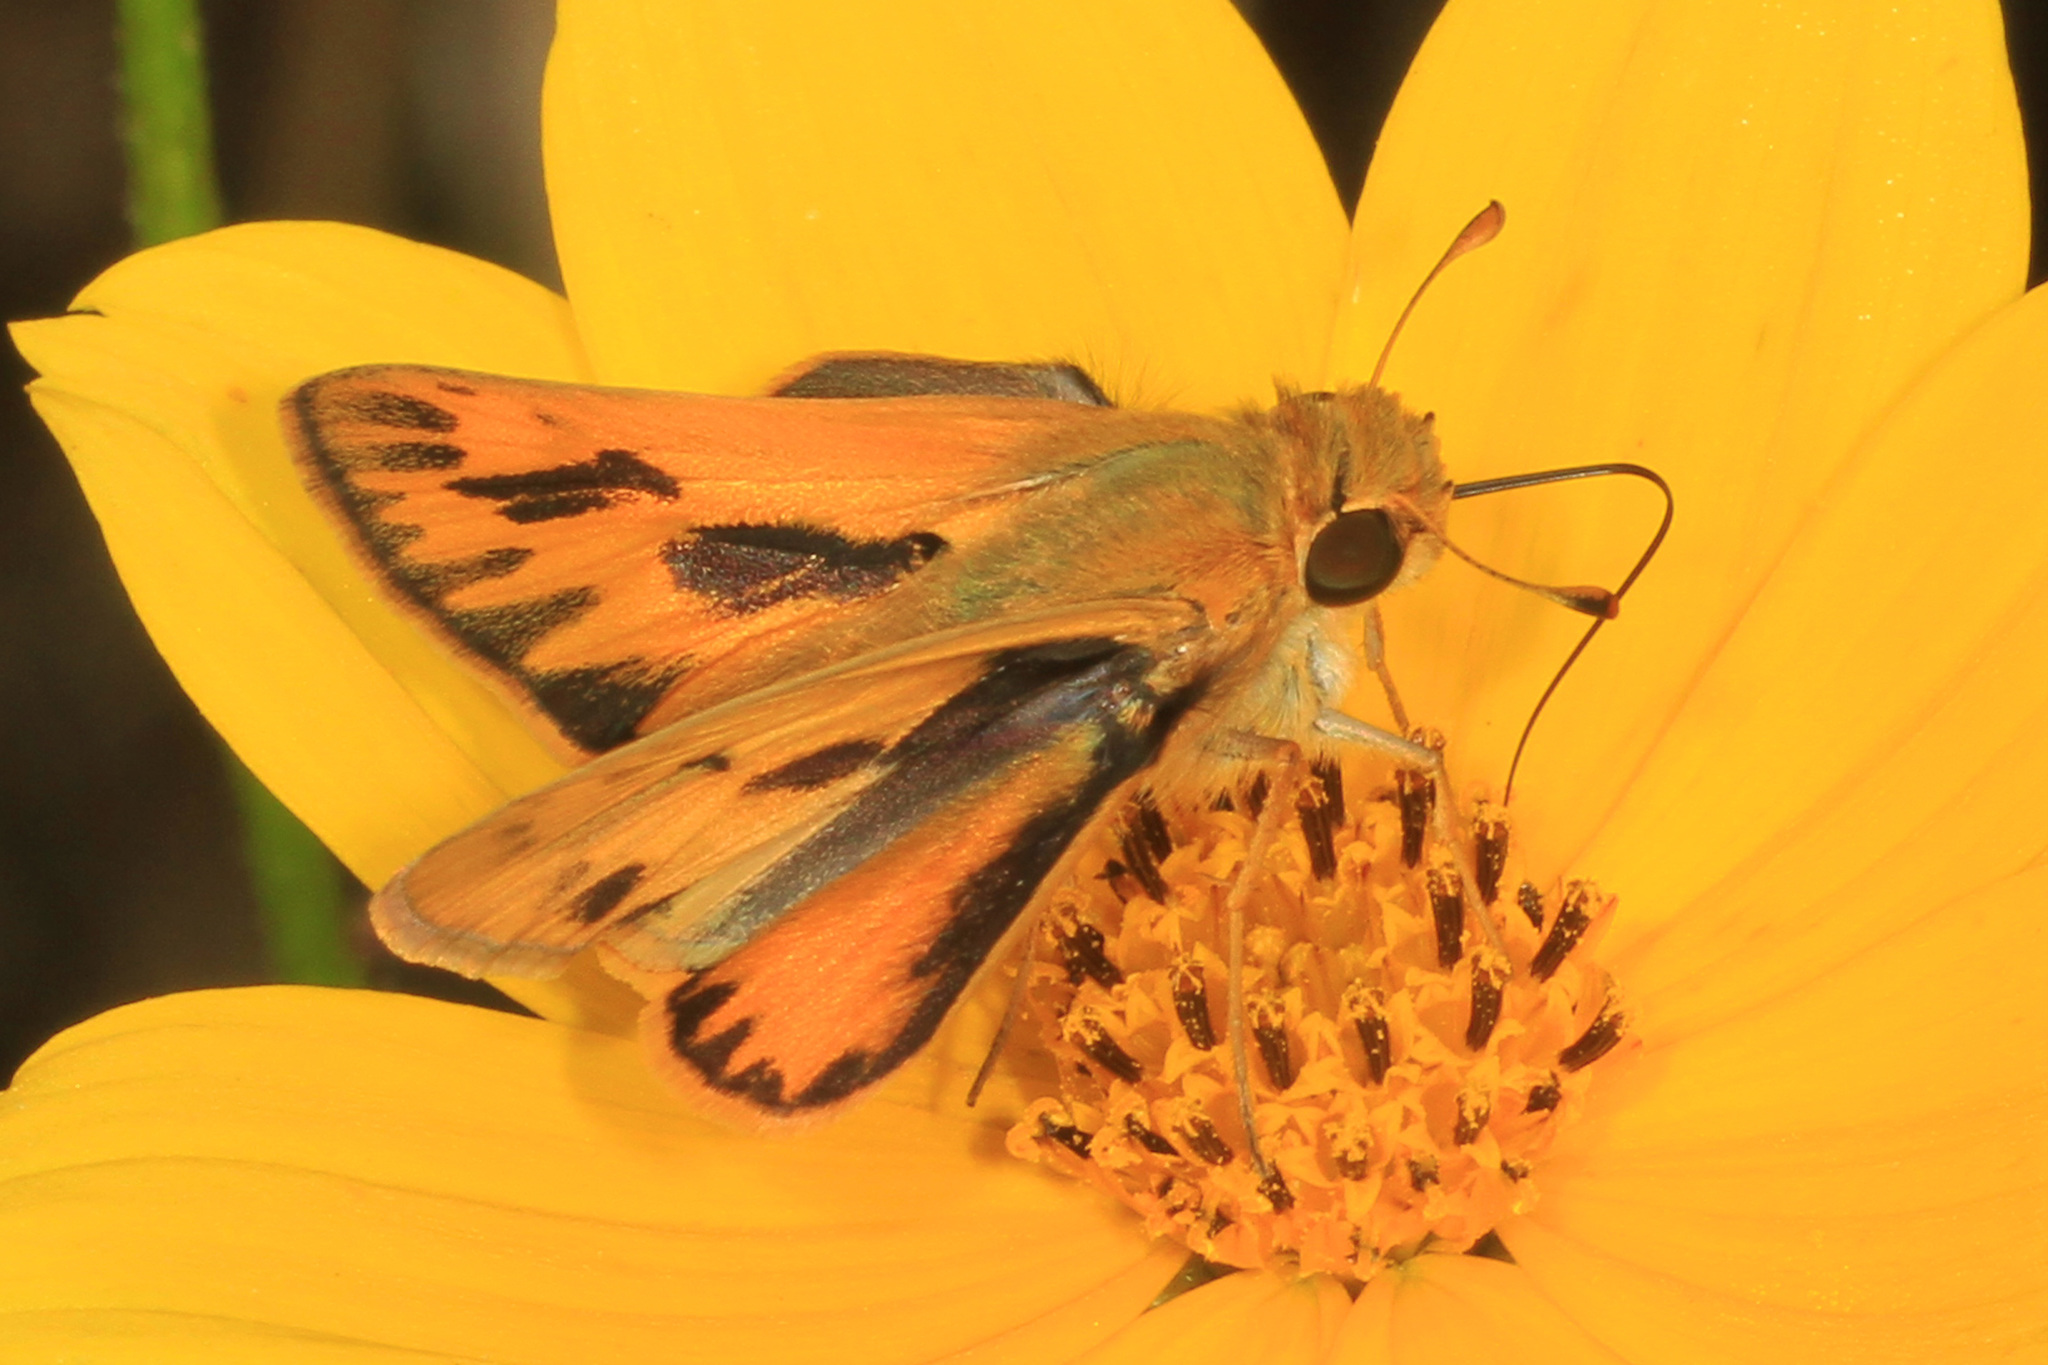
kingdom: Animalia
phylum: Arthropoda
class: Insecta
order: Lepidoptera
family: Hesperiidae
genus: Hylephila
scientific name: Hylephila phyleus
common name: Fiery skipper
